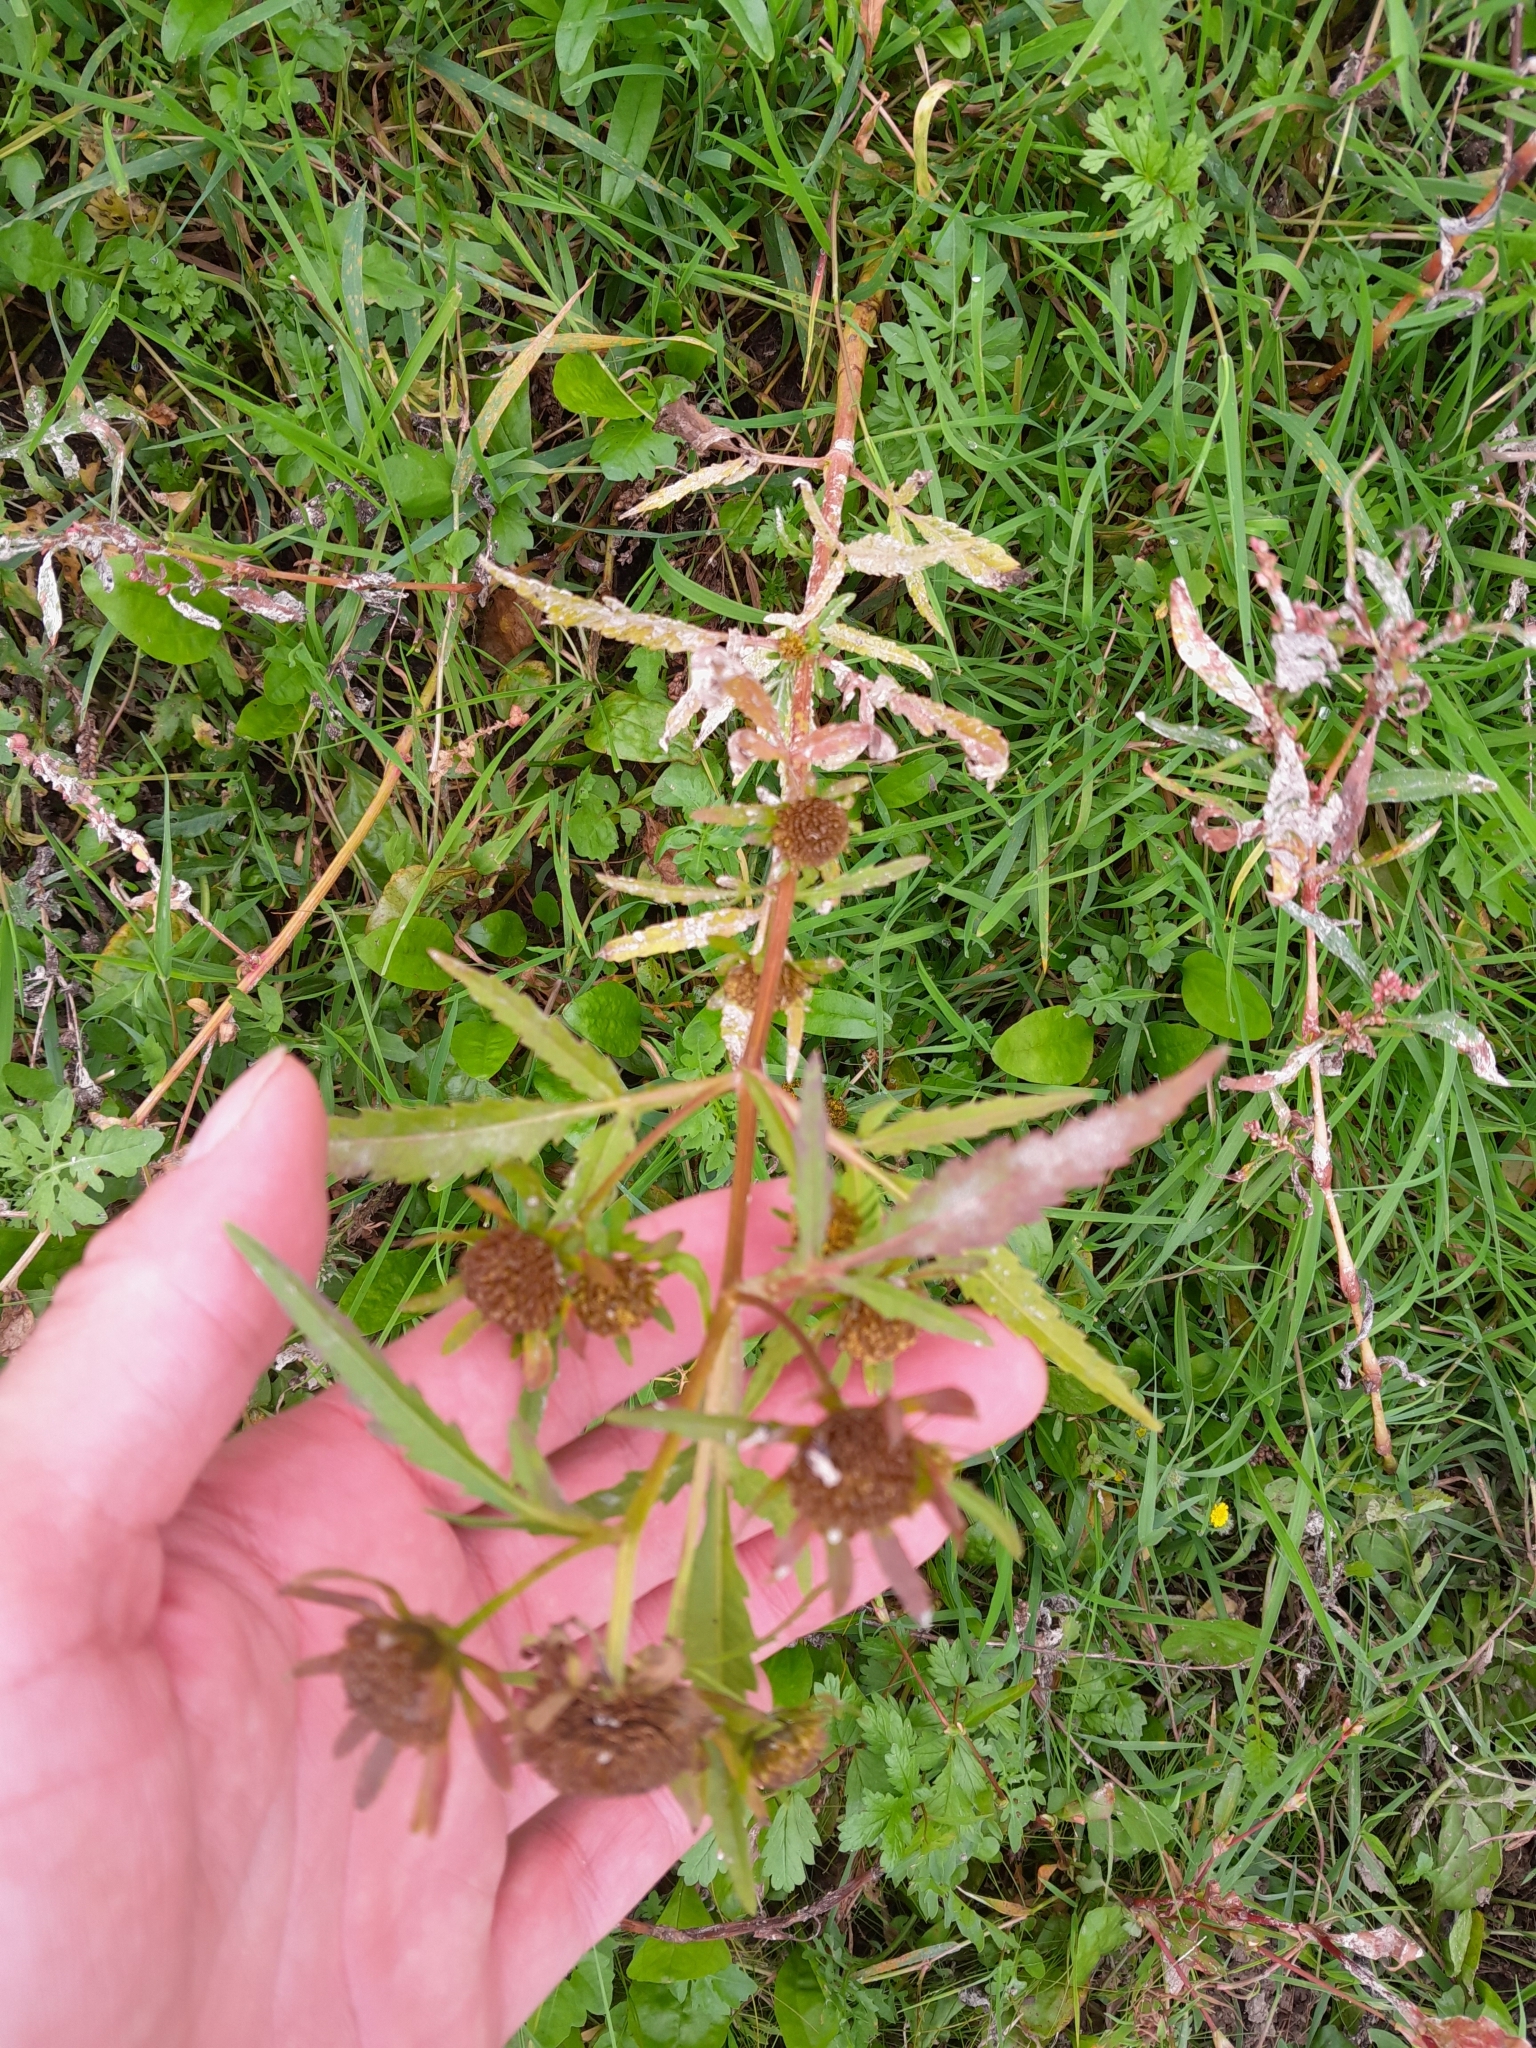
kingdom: Plantae
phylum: Tracheophyta
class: Magnoliopsida
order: Asterales
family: Asteraceae
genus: Bidens
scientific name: Bidens radiata
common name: Radiating bur-marigold
